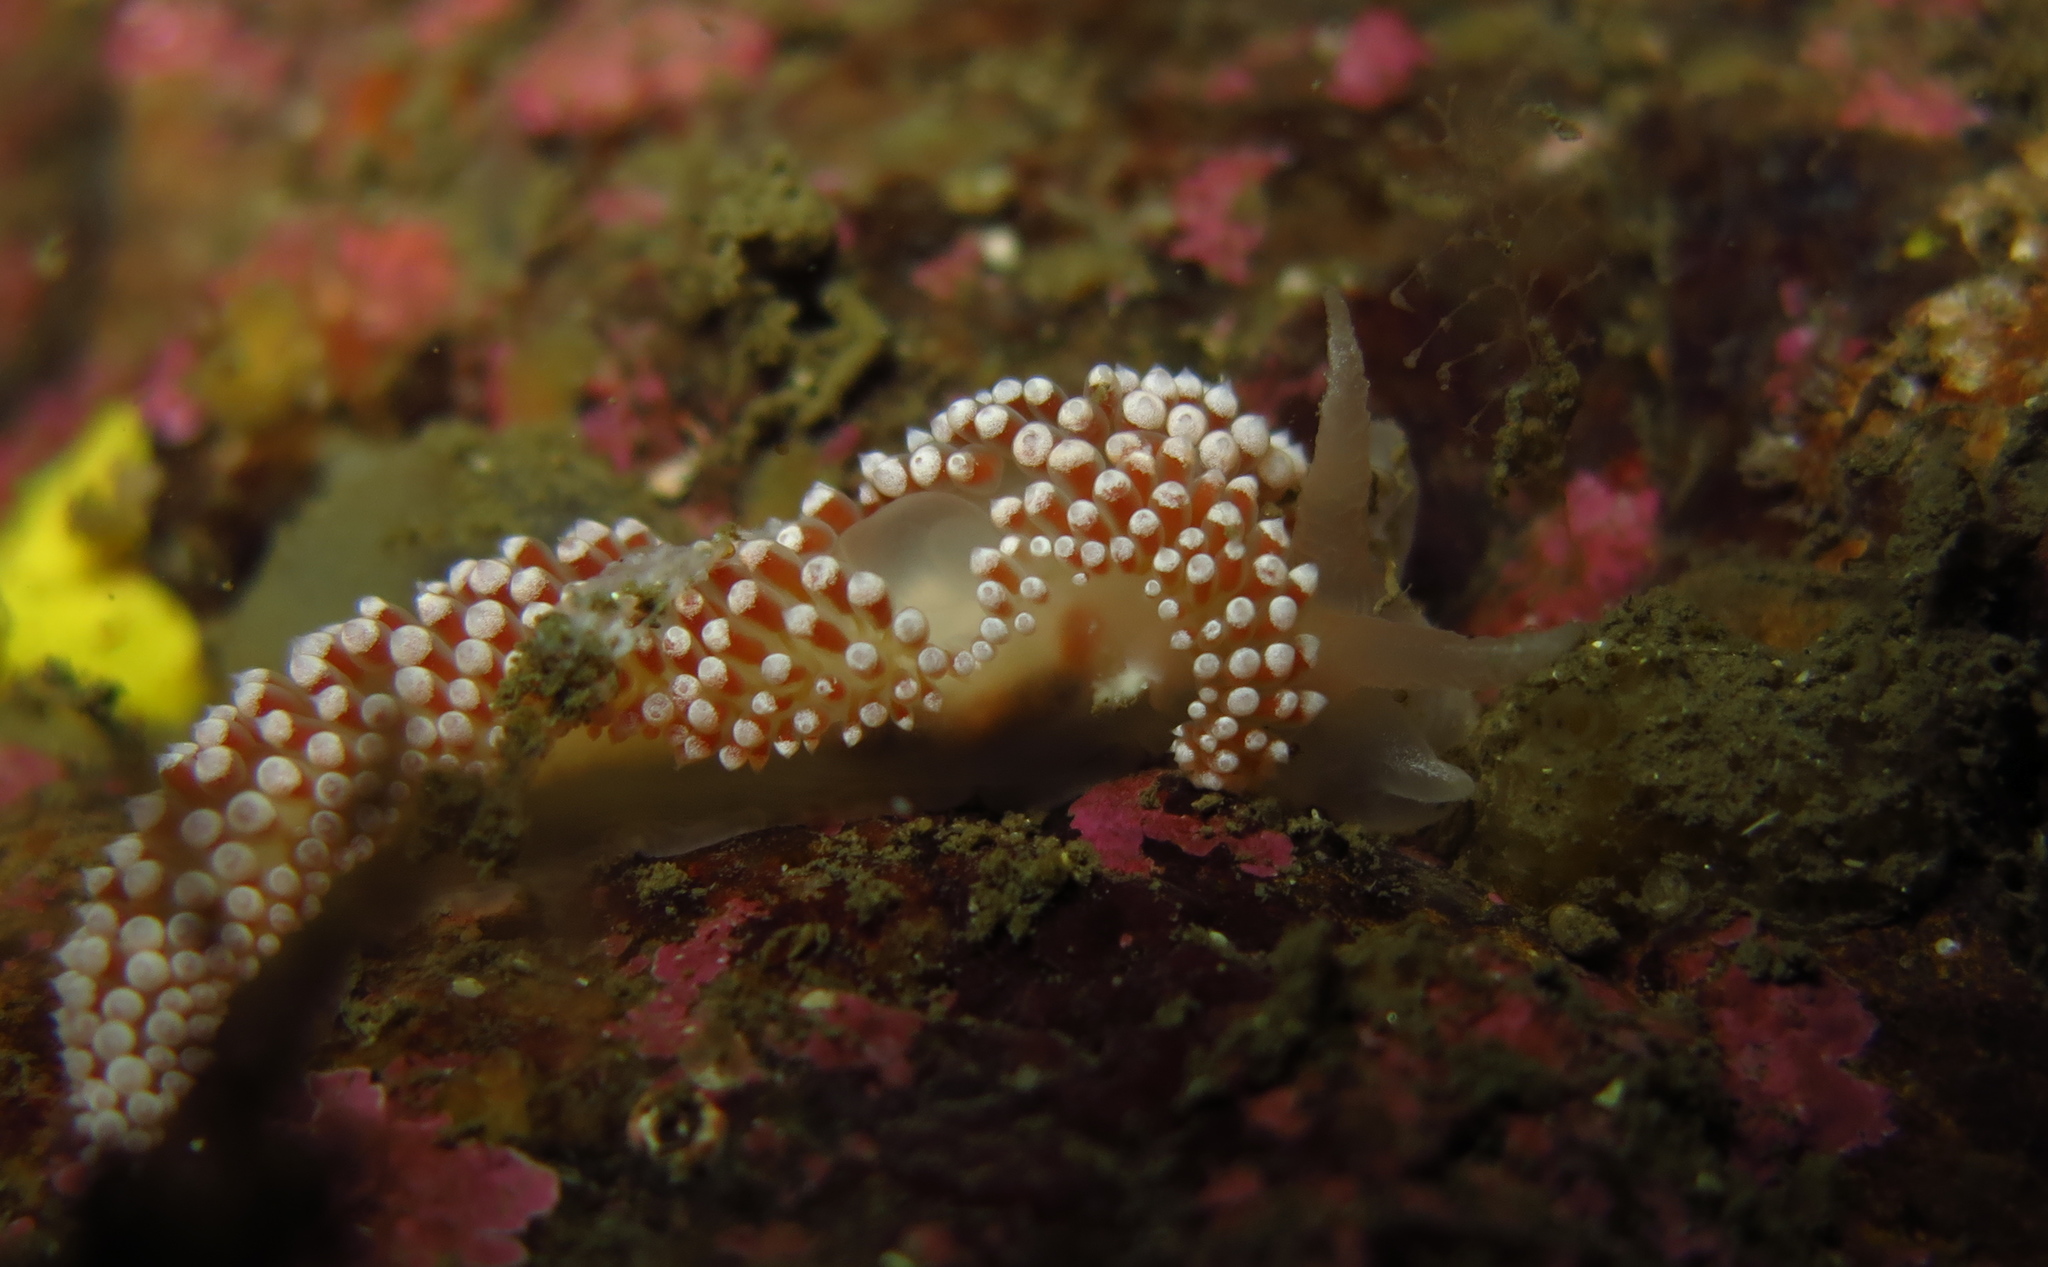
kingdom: Animalia
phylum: Mollusca
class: Gastropoda
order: Nudibranchia
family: Coryphellidae
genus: Coryphella
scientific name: Coryphella verrucosa
